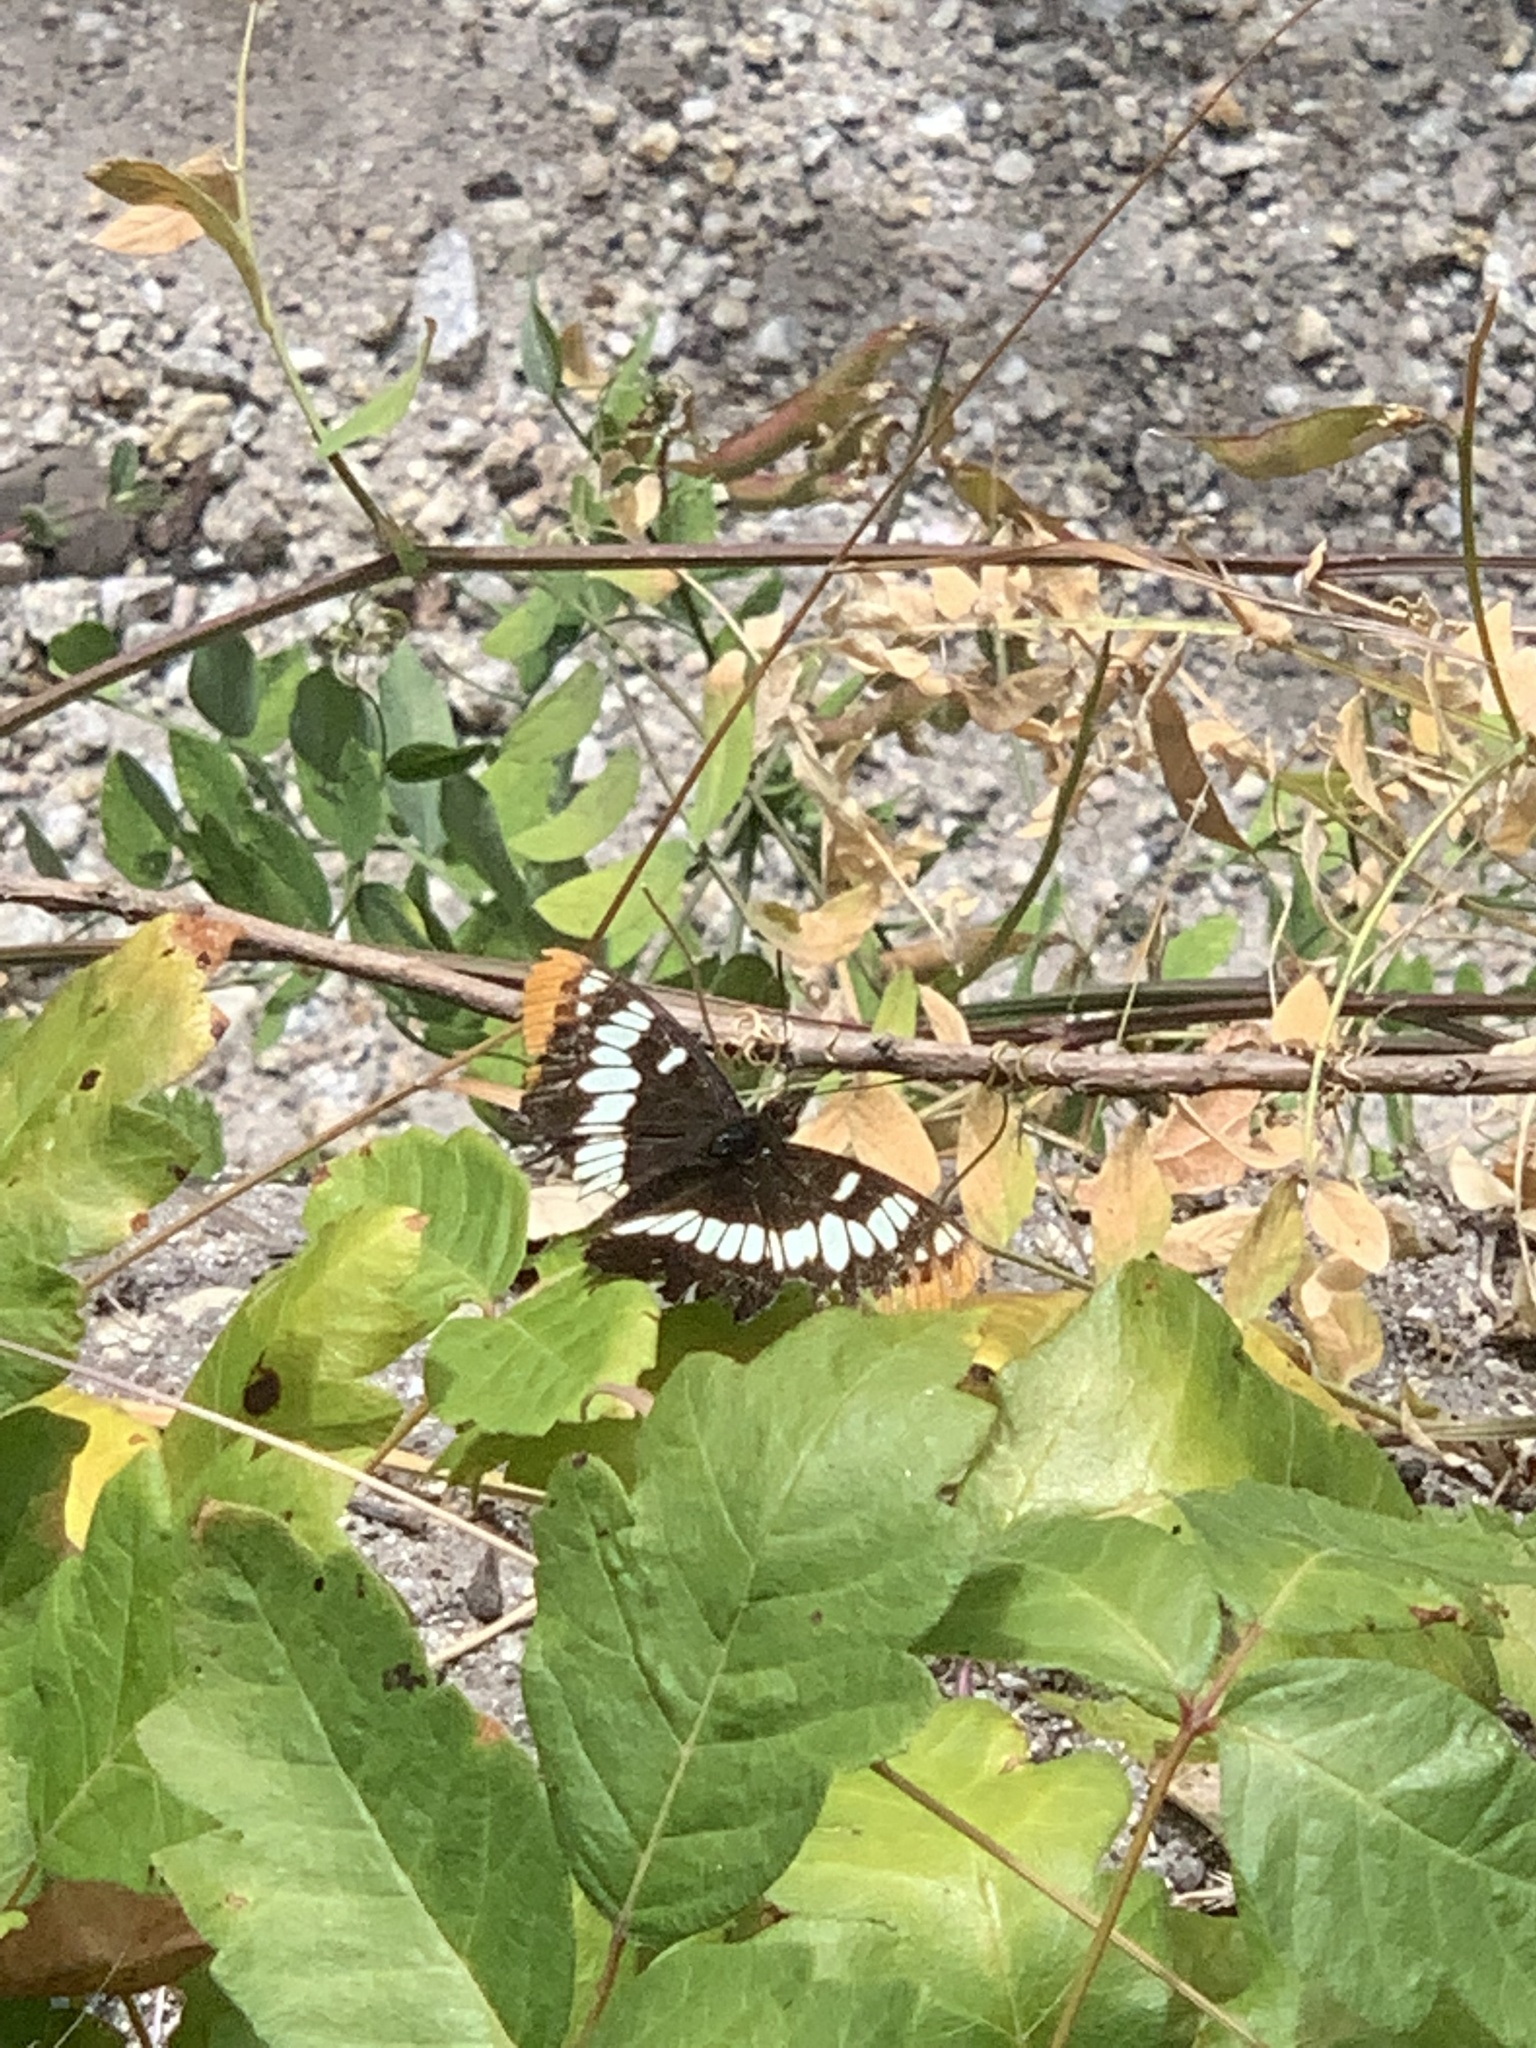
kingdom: Animalia
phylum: Arthropoda
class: Insecta
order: Lepidoptera
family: Nymphalidae
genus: Limenitis
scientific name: Limenitis lorquini
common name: Lorquin's admiral
